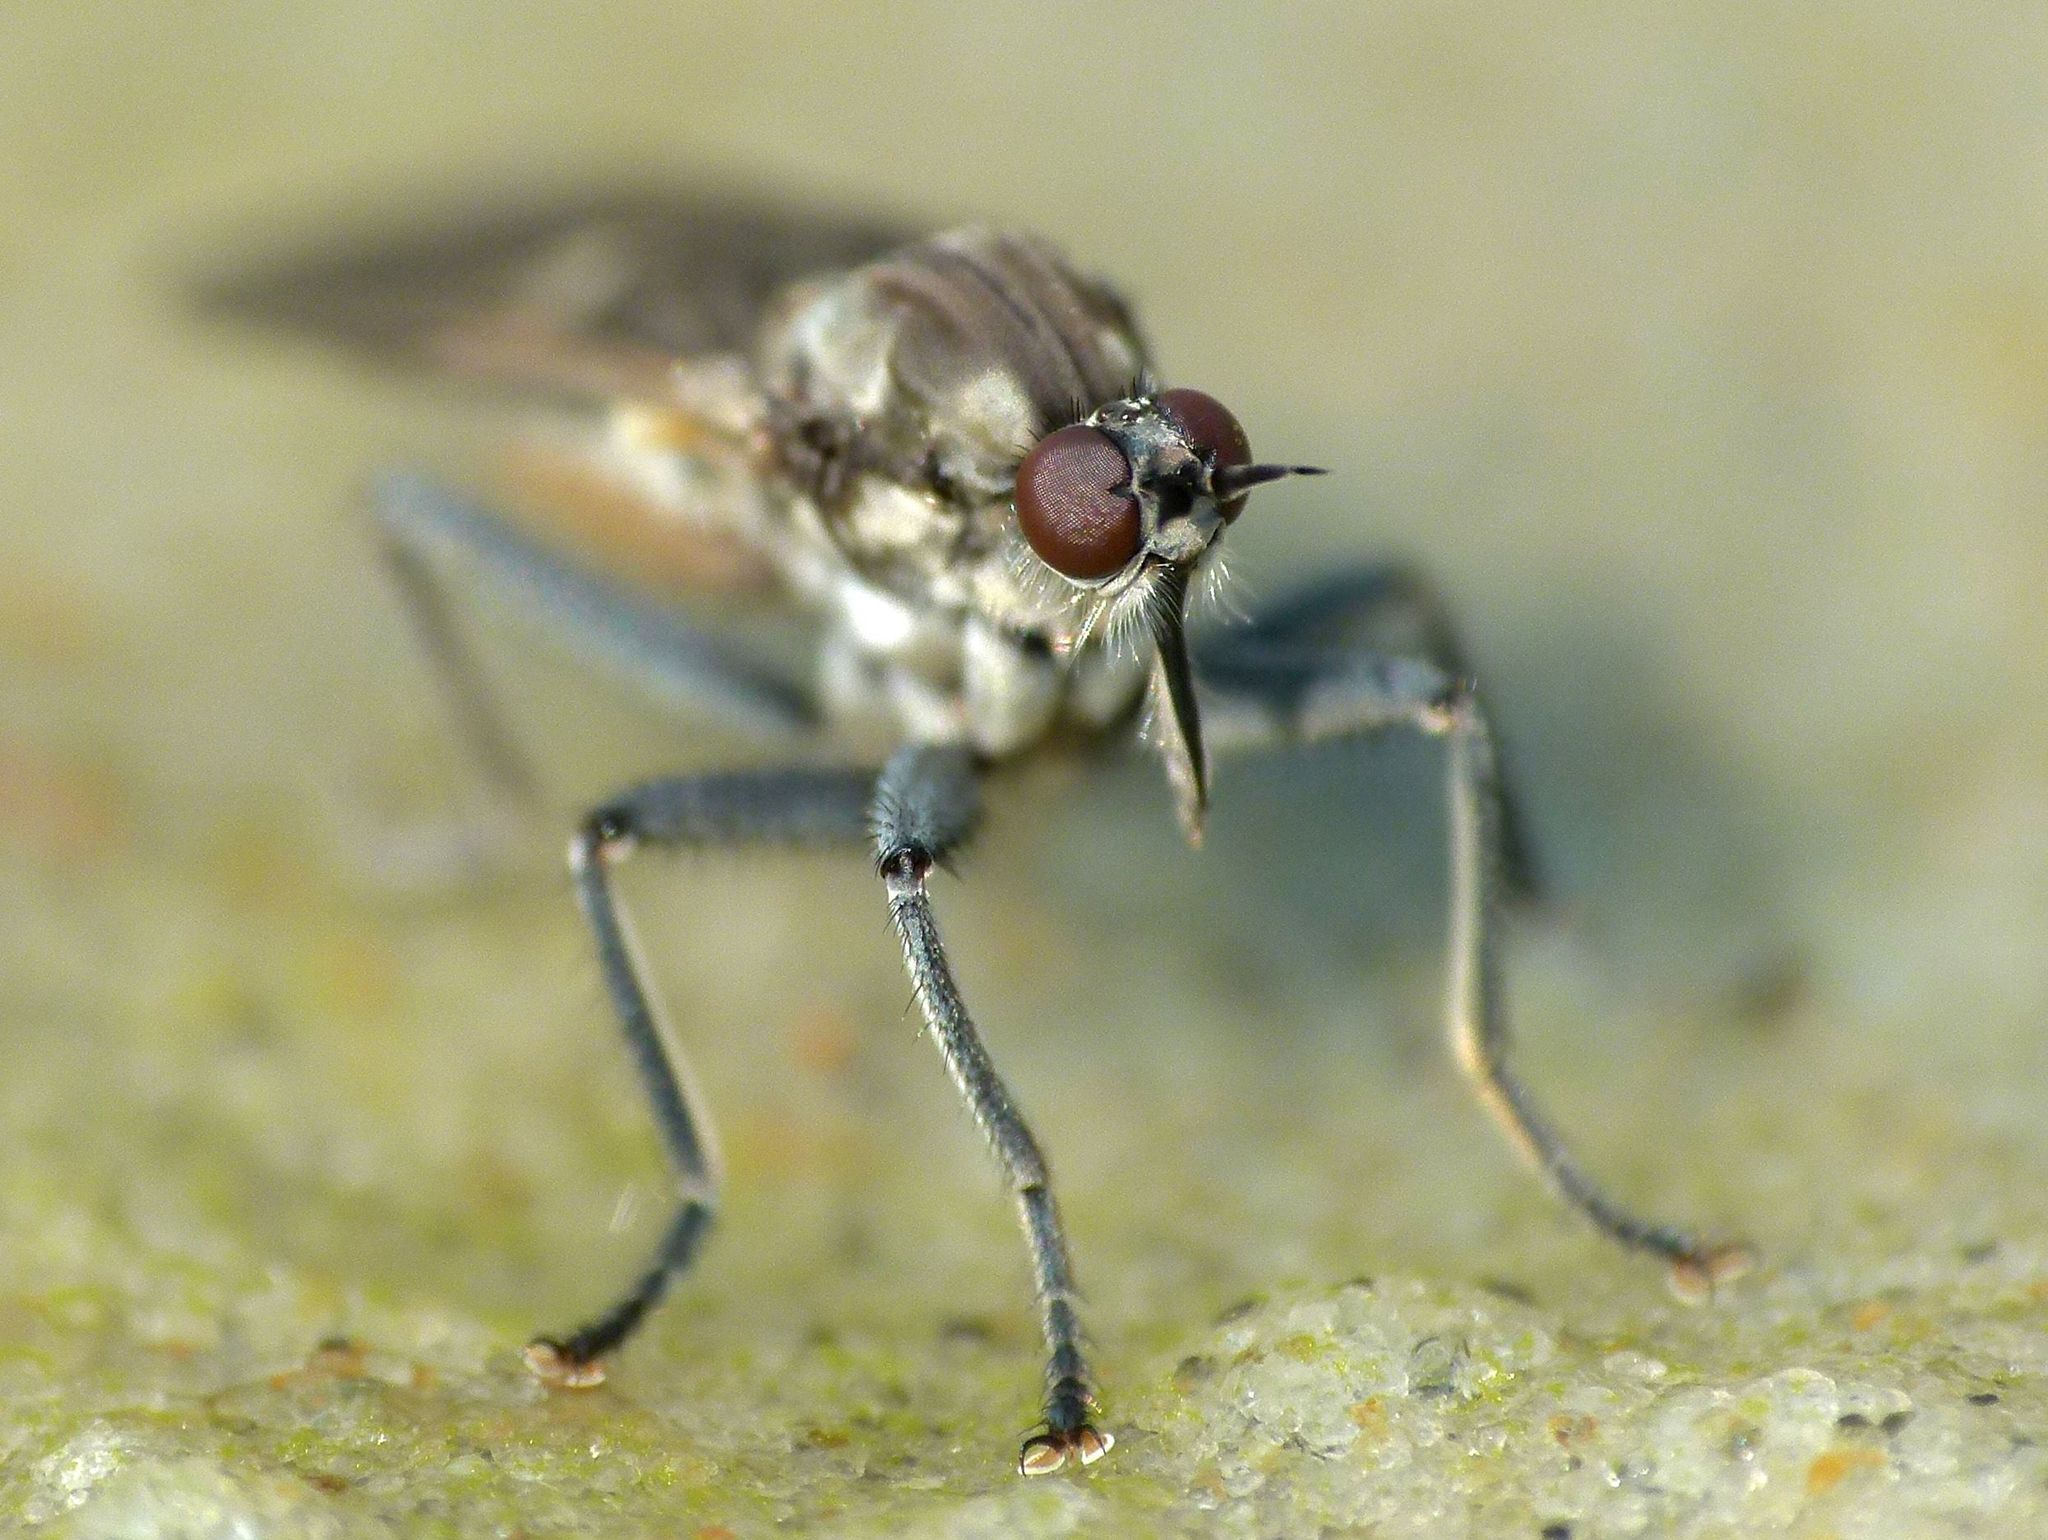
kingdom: Animalia
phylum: Arthropoda
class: Insecta
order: Diptera
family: Empididae
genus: Thinempis
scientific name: Thinempis otakouensis
